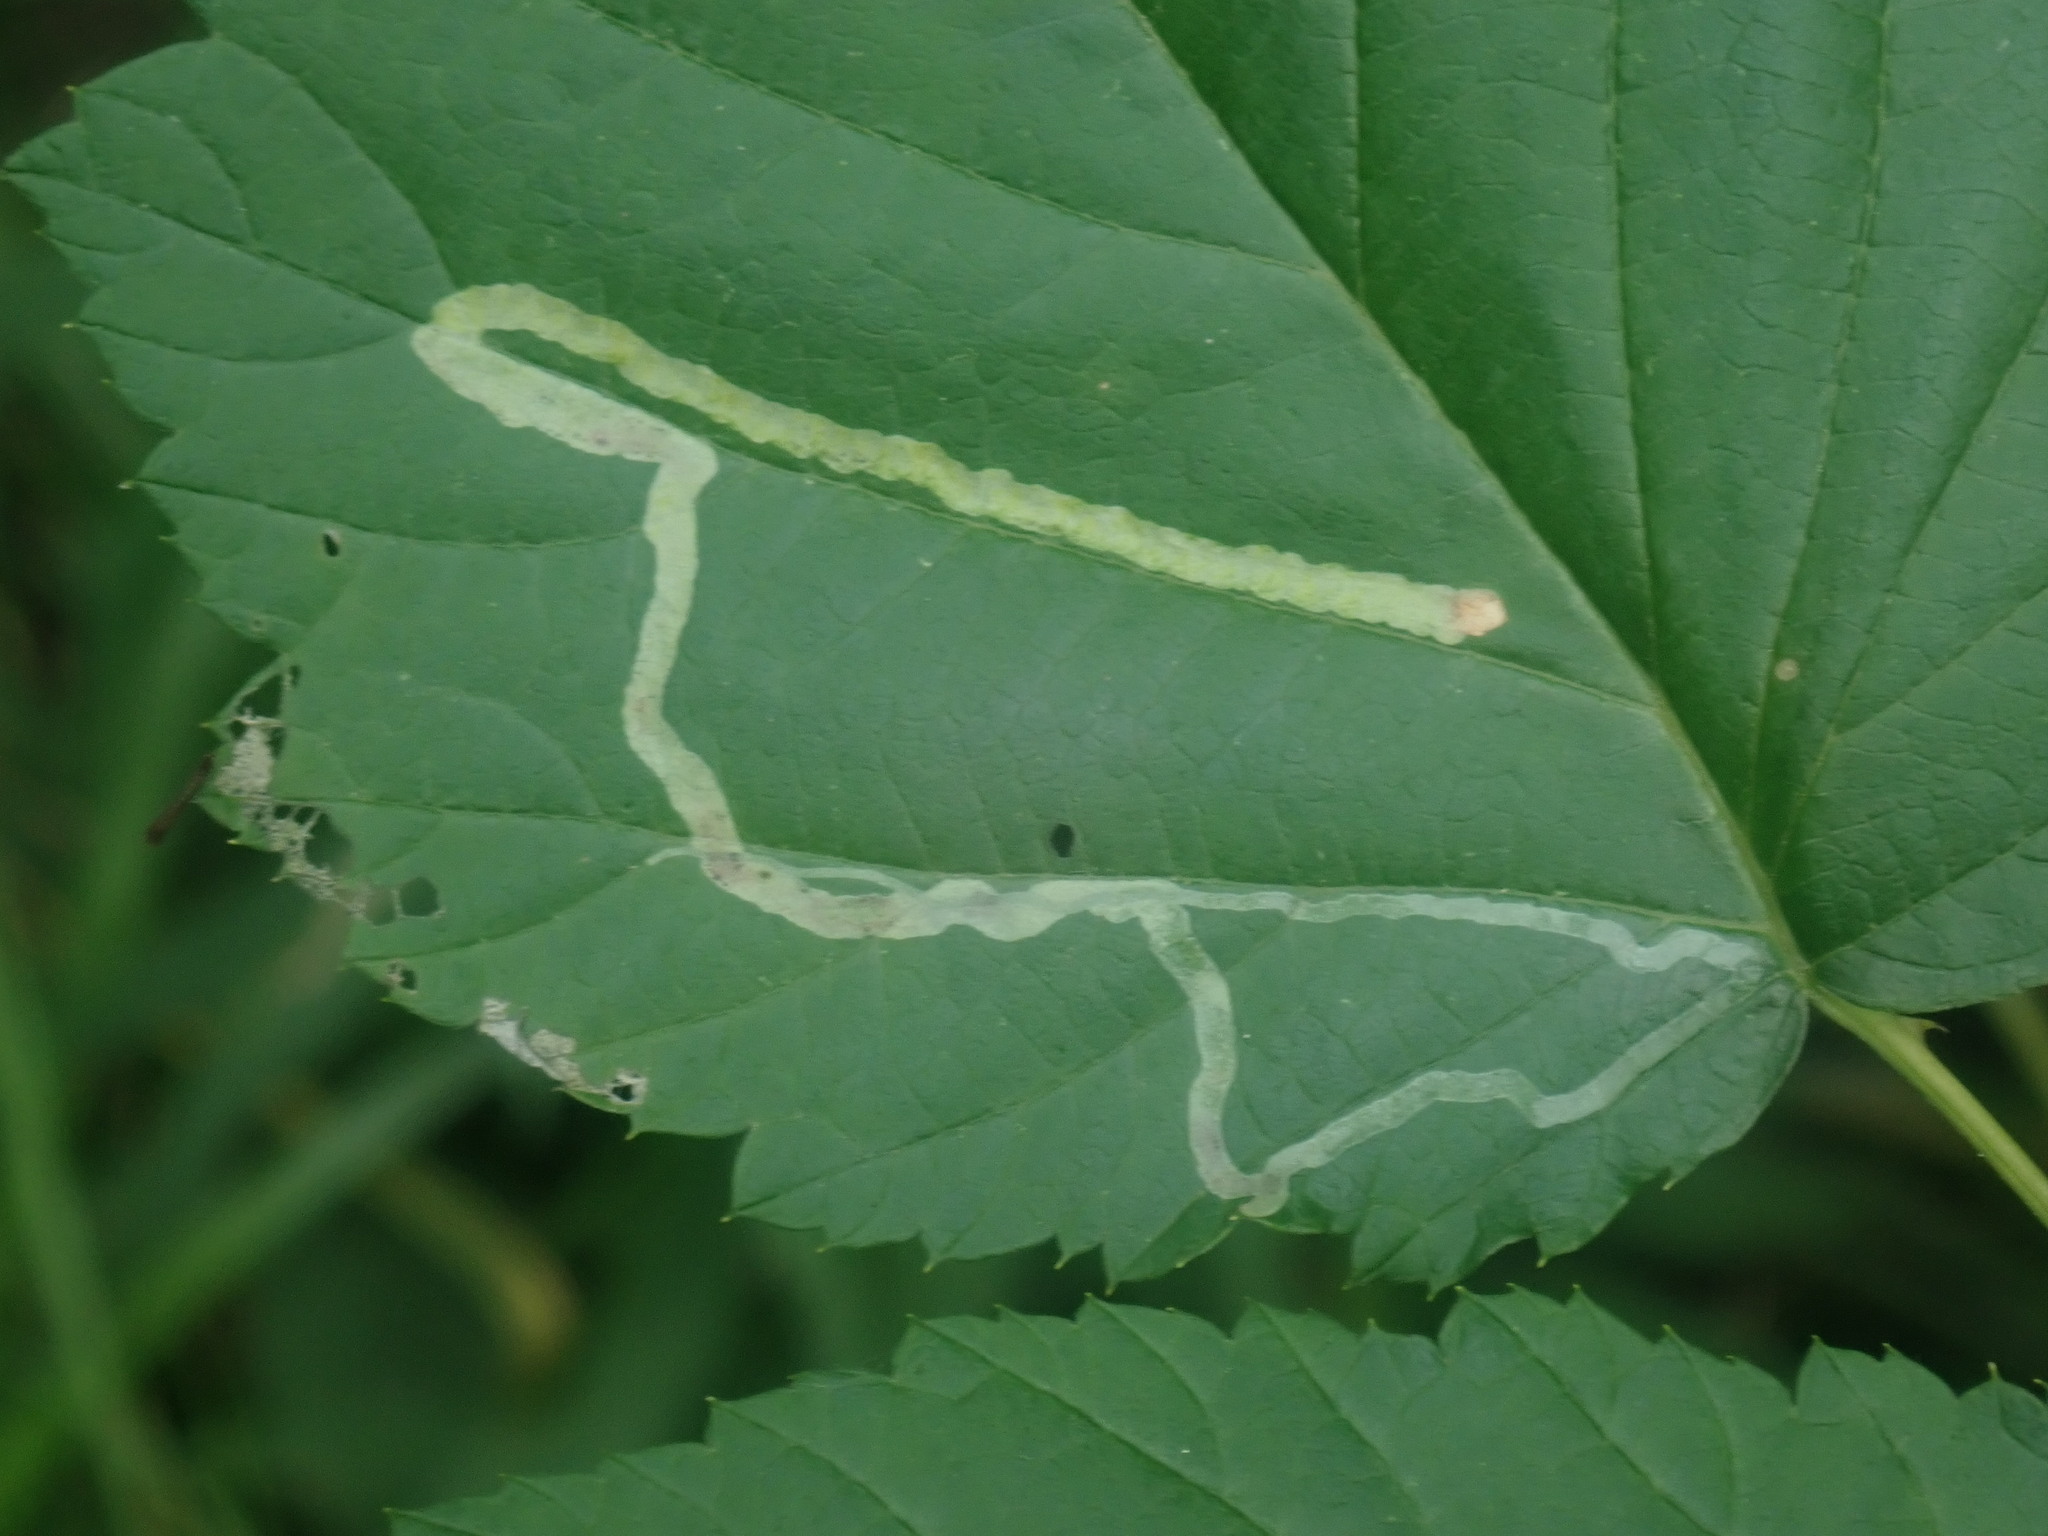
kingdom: Animalia
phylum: Arthropoda
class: Insecta
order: Diptera
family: Agromyzidae
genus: Agromyza
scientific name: Agromyza vockerothi
